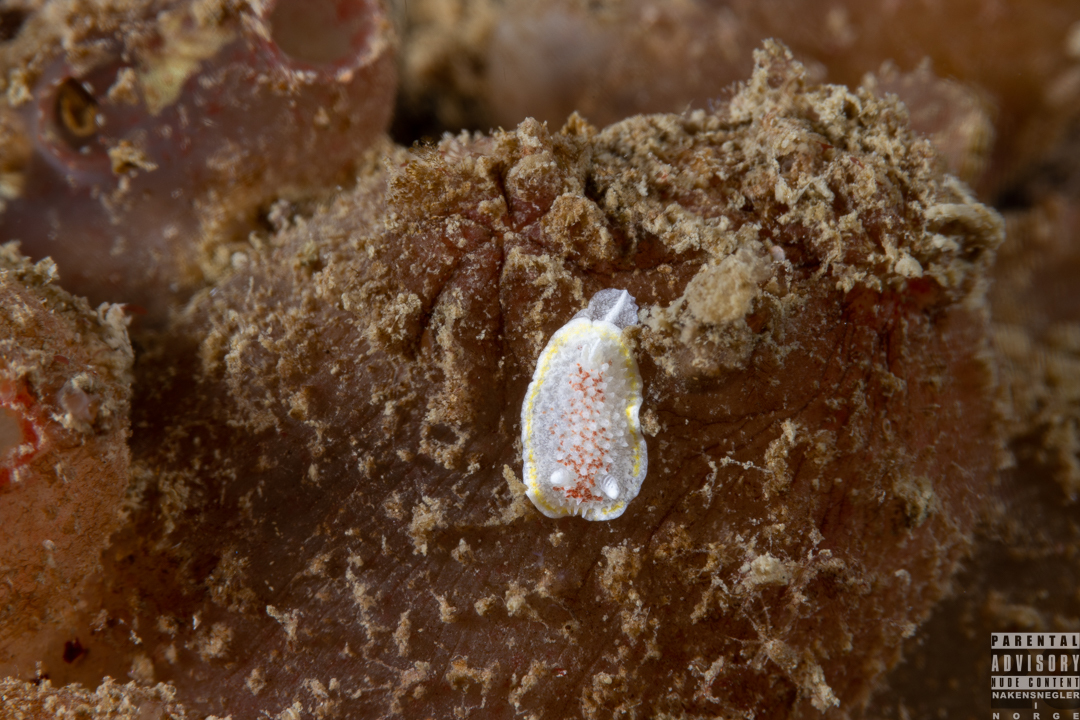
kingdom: Animalia
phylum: Mollusca
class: Gastropoda
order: Nudibranchia
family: Calycidorididae
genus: Diaphorodoris
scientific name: Diaphorodoris luteocincta
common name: Fried egg nudibranch
